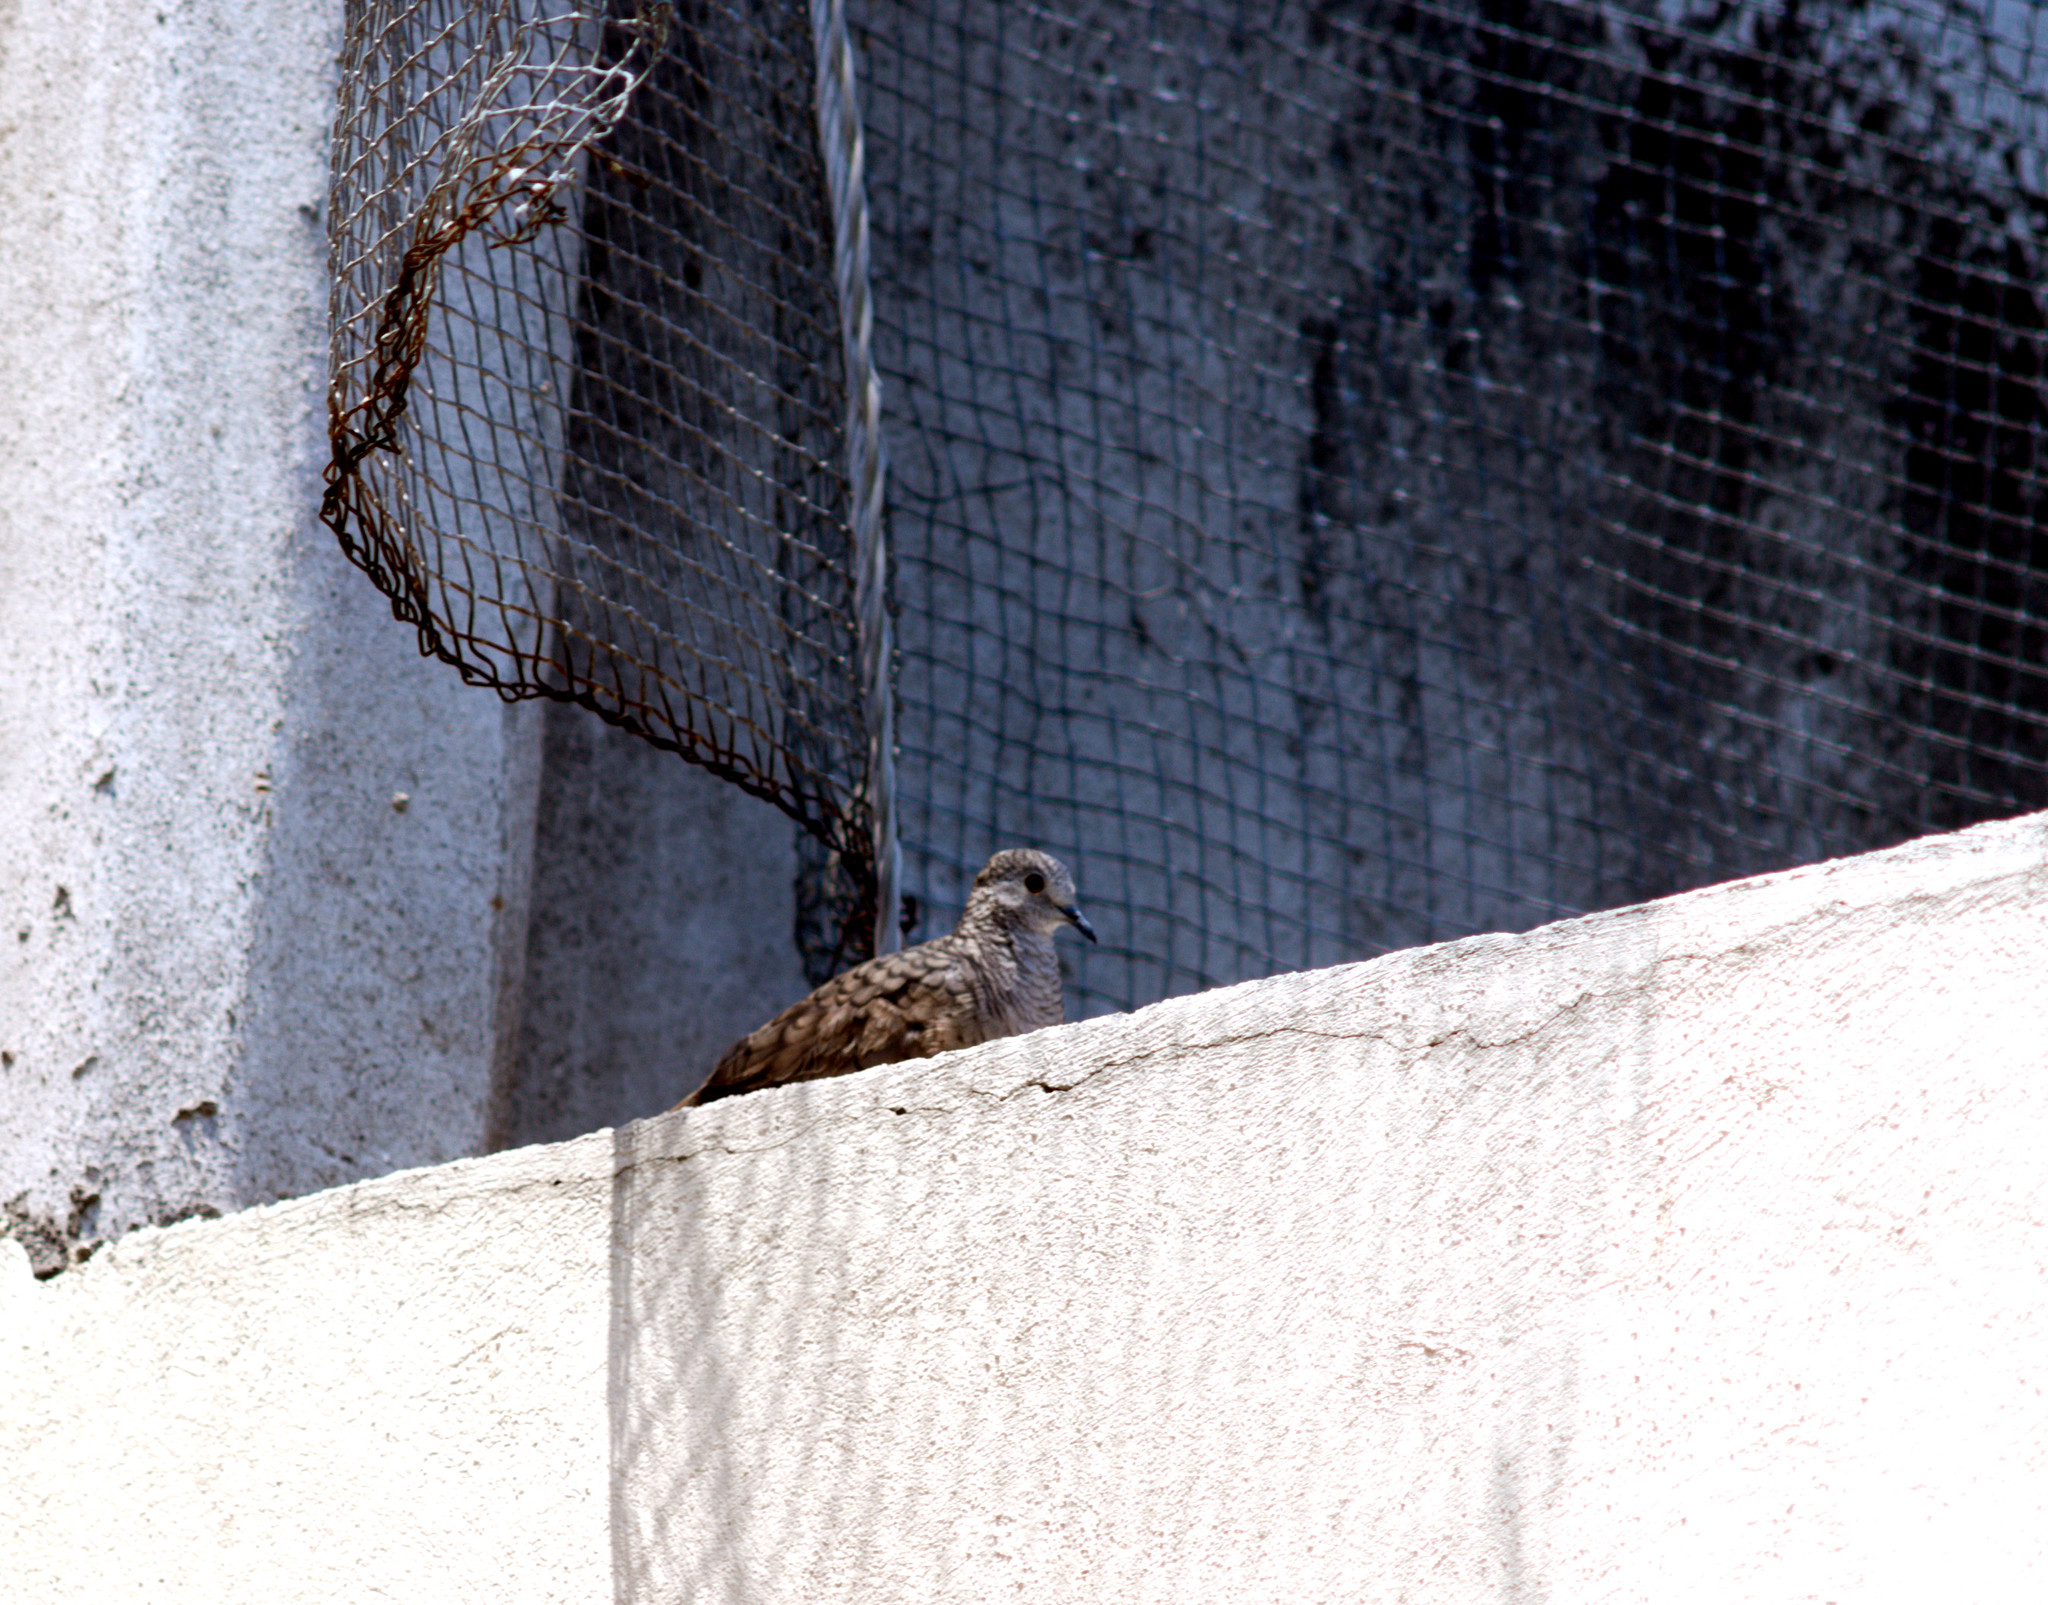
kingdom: Animalia
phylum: Chordata
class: Aves
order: Columbiformes
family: Columbidae
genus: Columbina
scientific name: Columbina inca
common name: Inca dove
